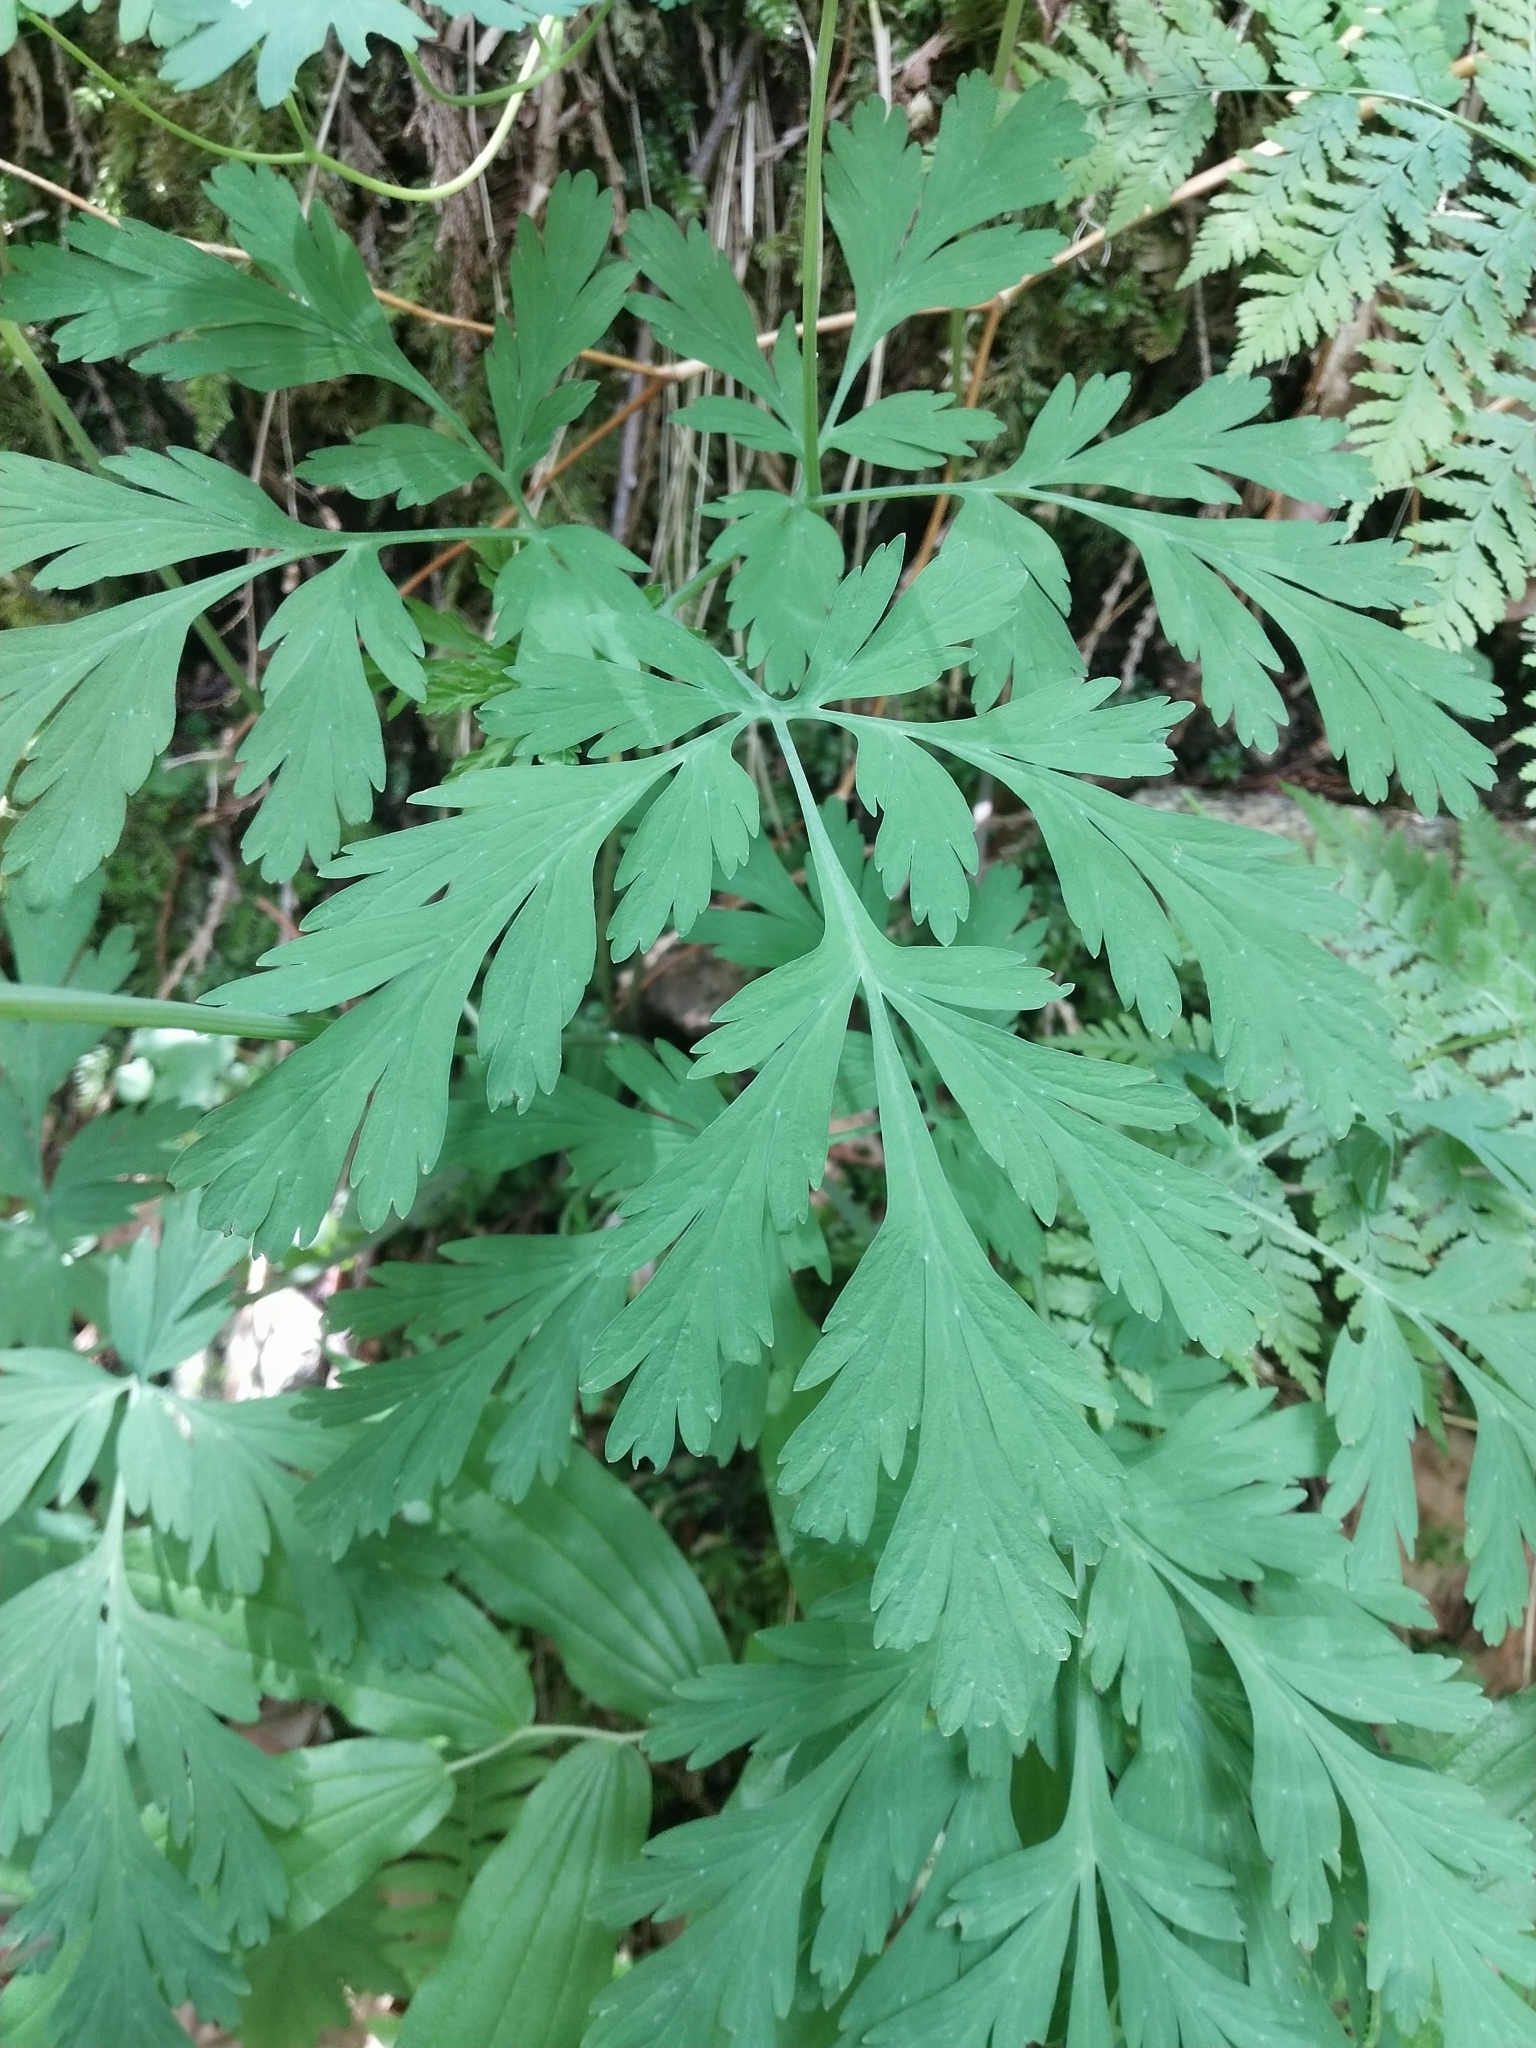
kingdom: Plantae
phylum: Tracheophyta
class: Magnoliopsida
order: Ranunculales
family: Papaveraceae
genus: Dicentra
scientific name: Dicentra formosa
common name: Bleeding-heart
